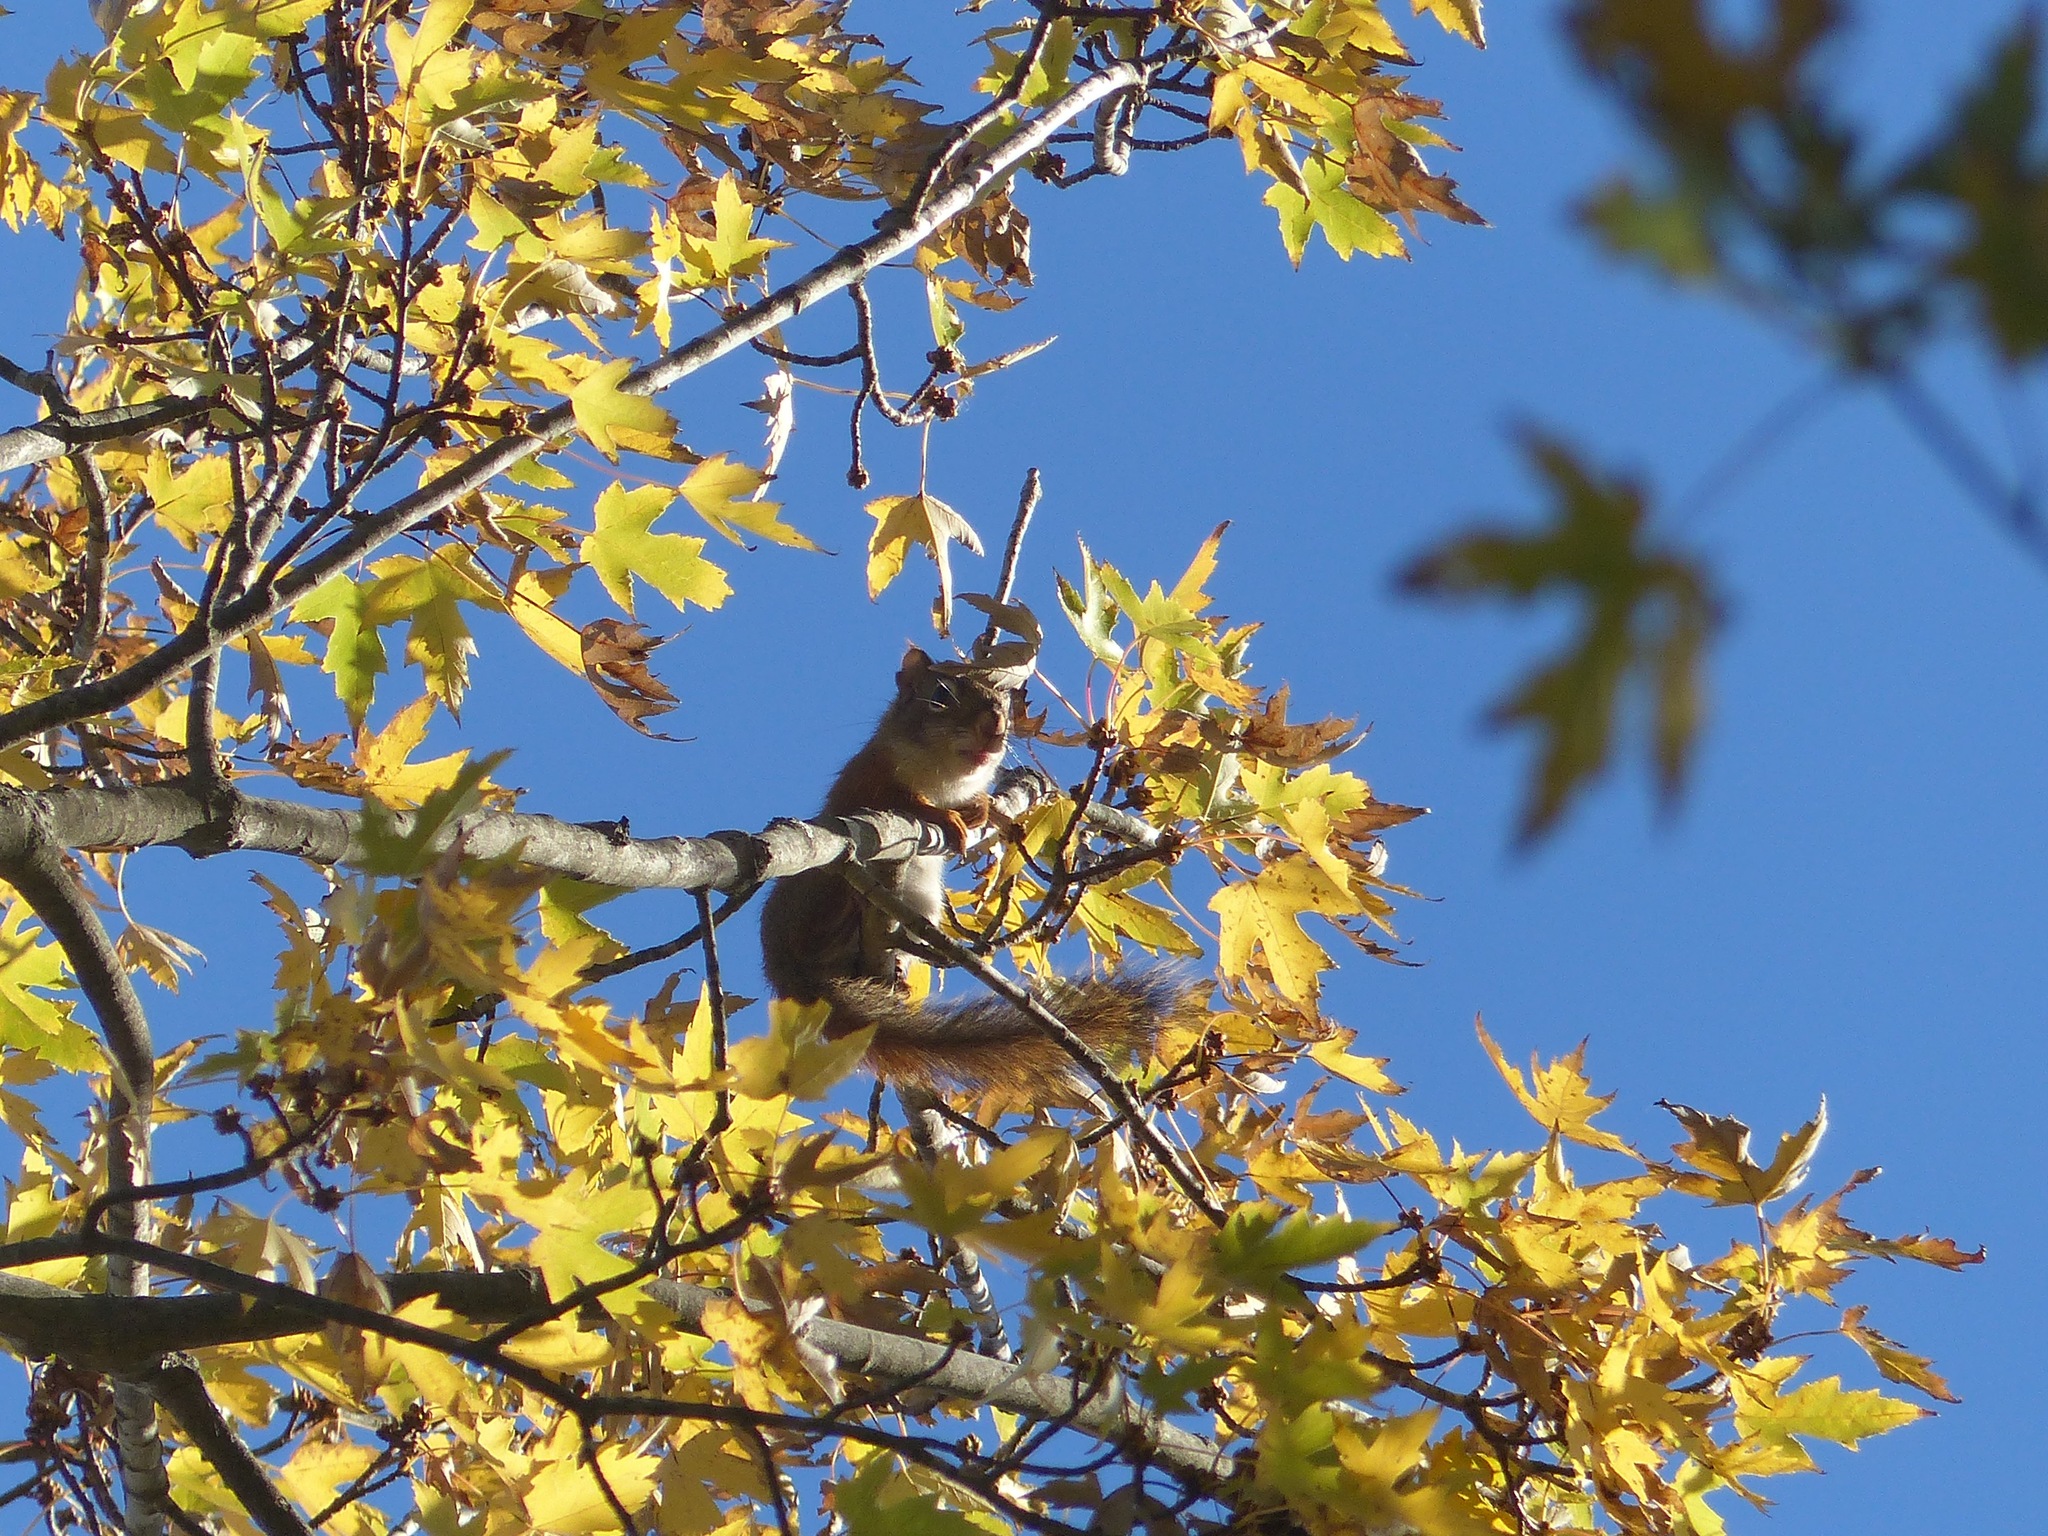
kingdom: Animalia
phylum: Chordata
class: Mammalia
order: Rodentia
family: Sciuridae
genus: Tamiasciurus
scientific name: Tamiasciurus hudsonicus
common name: Red squirrel
